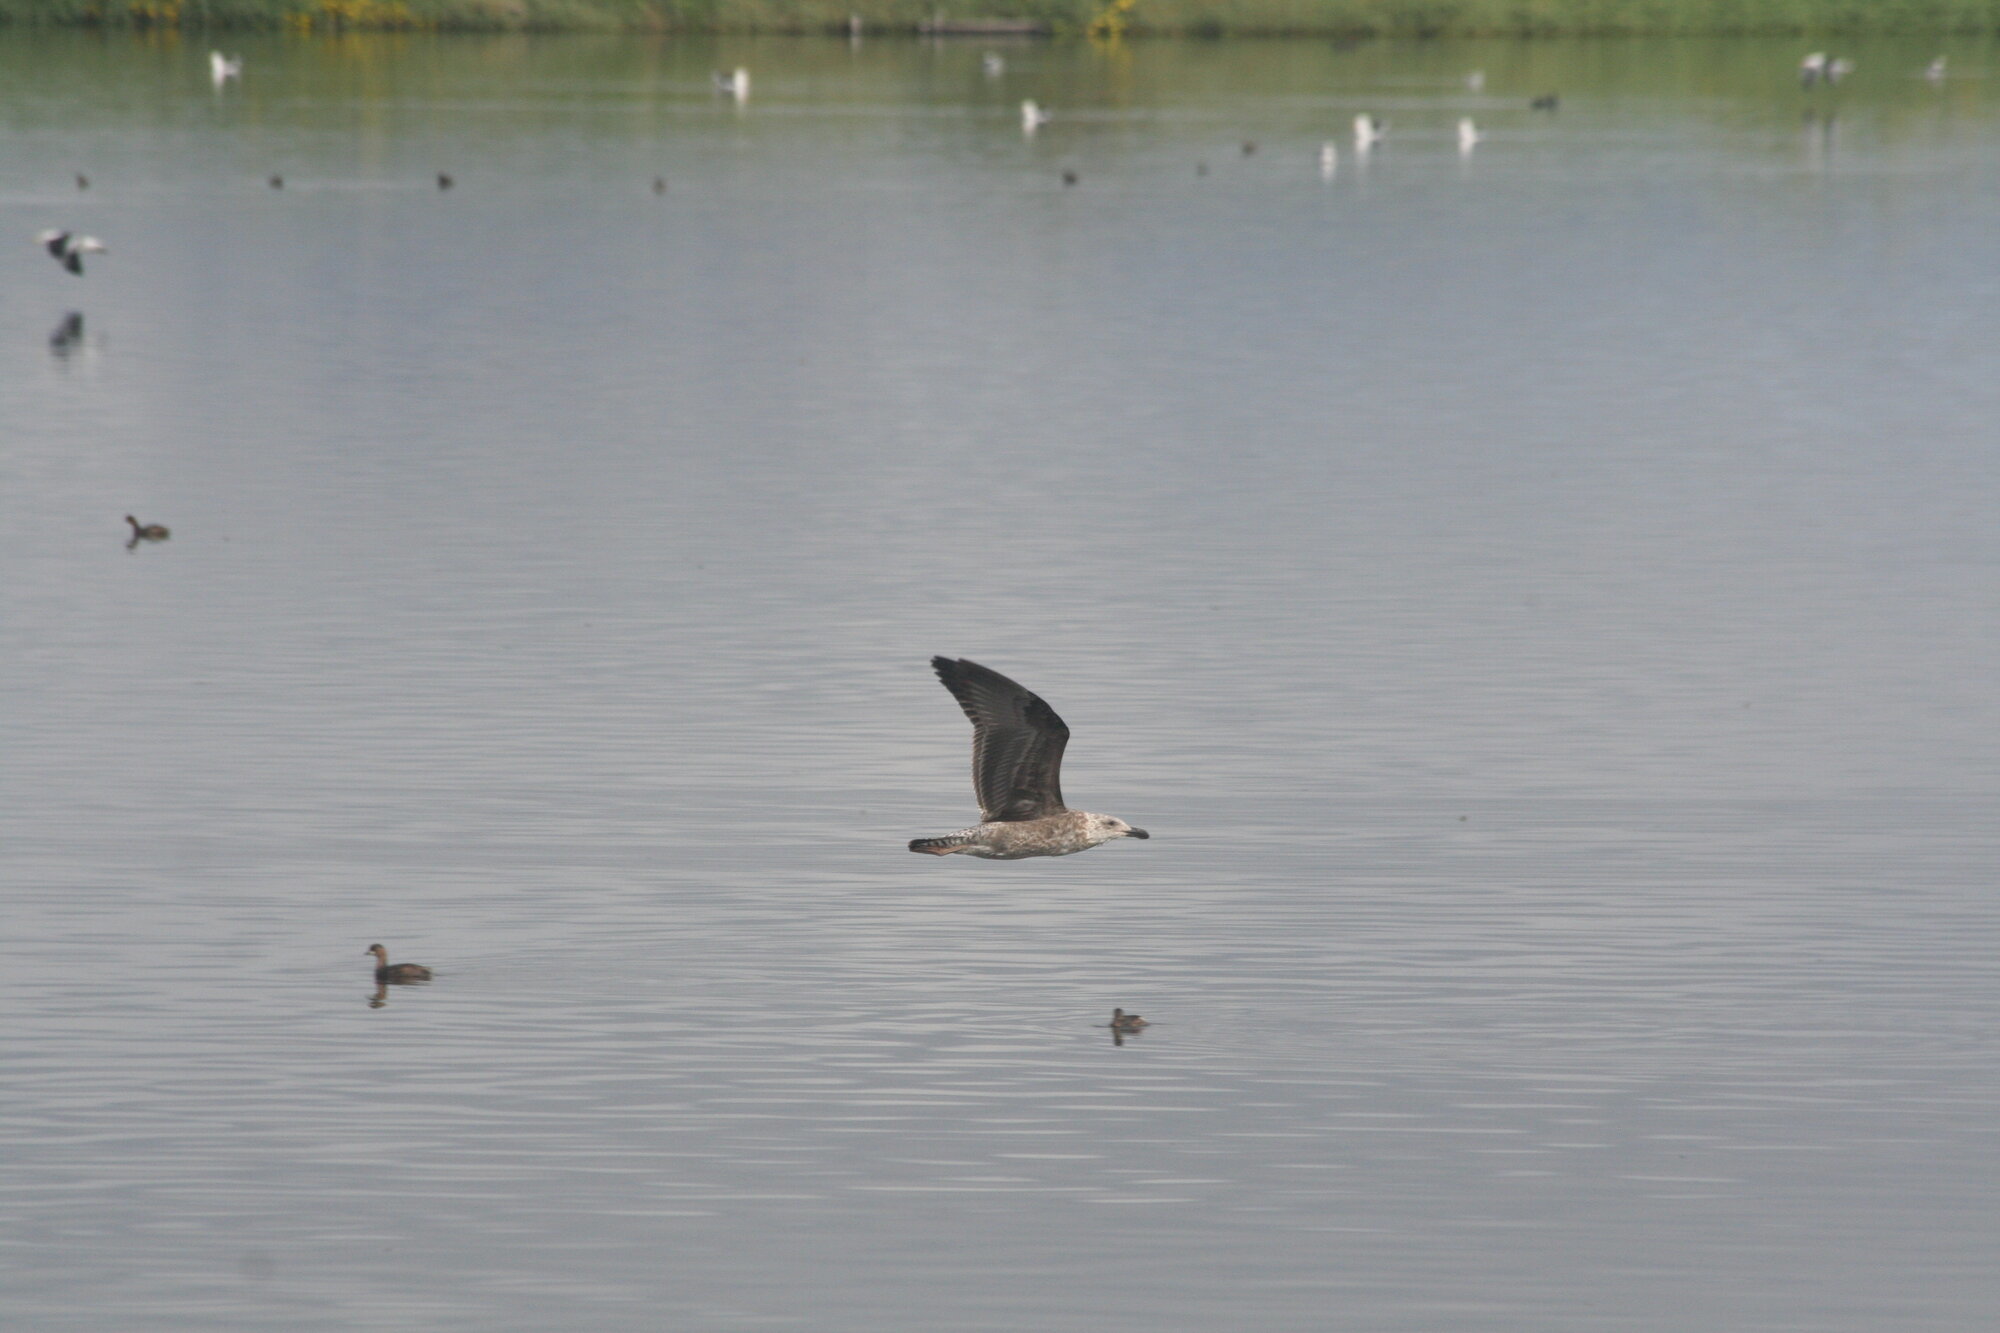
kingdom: Animalia
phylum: Chordata
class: Aves
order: Charadriiformes
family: Laridae
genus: Larus
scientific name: Larus dominicanus
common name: Kelp gull
